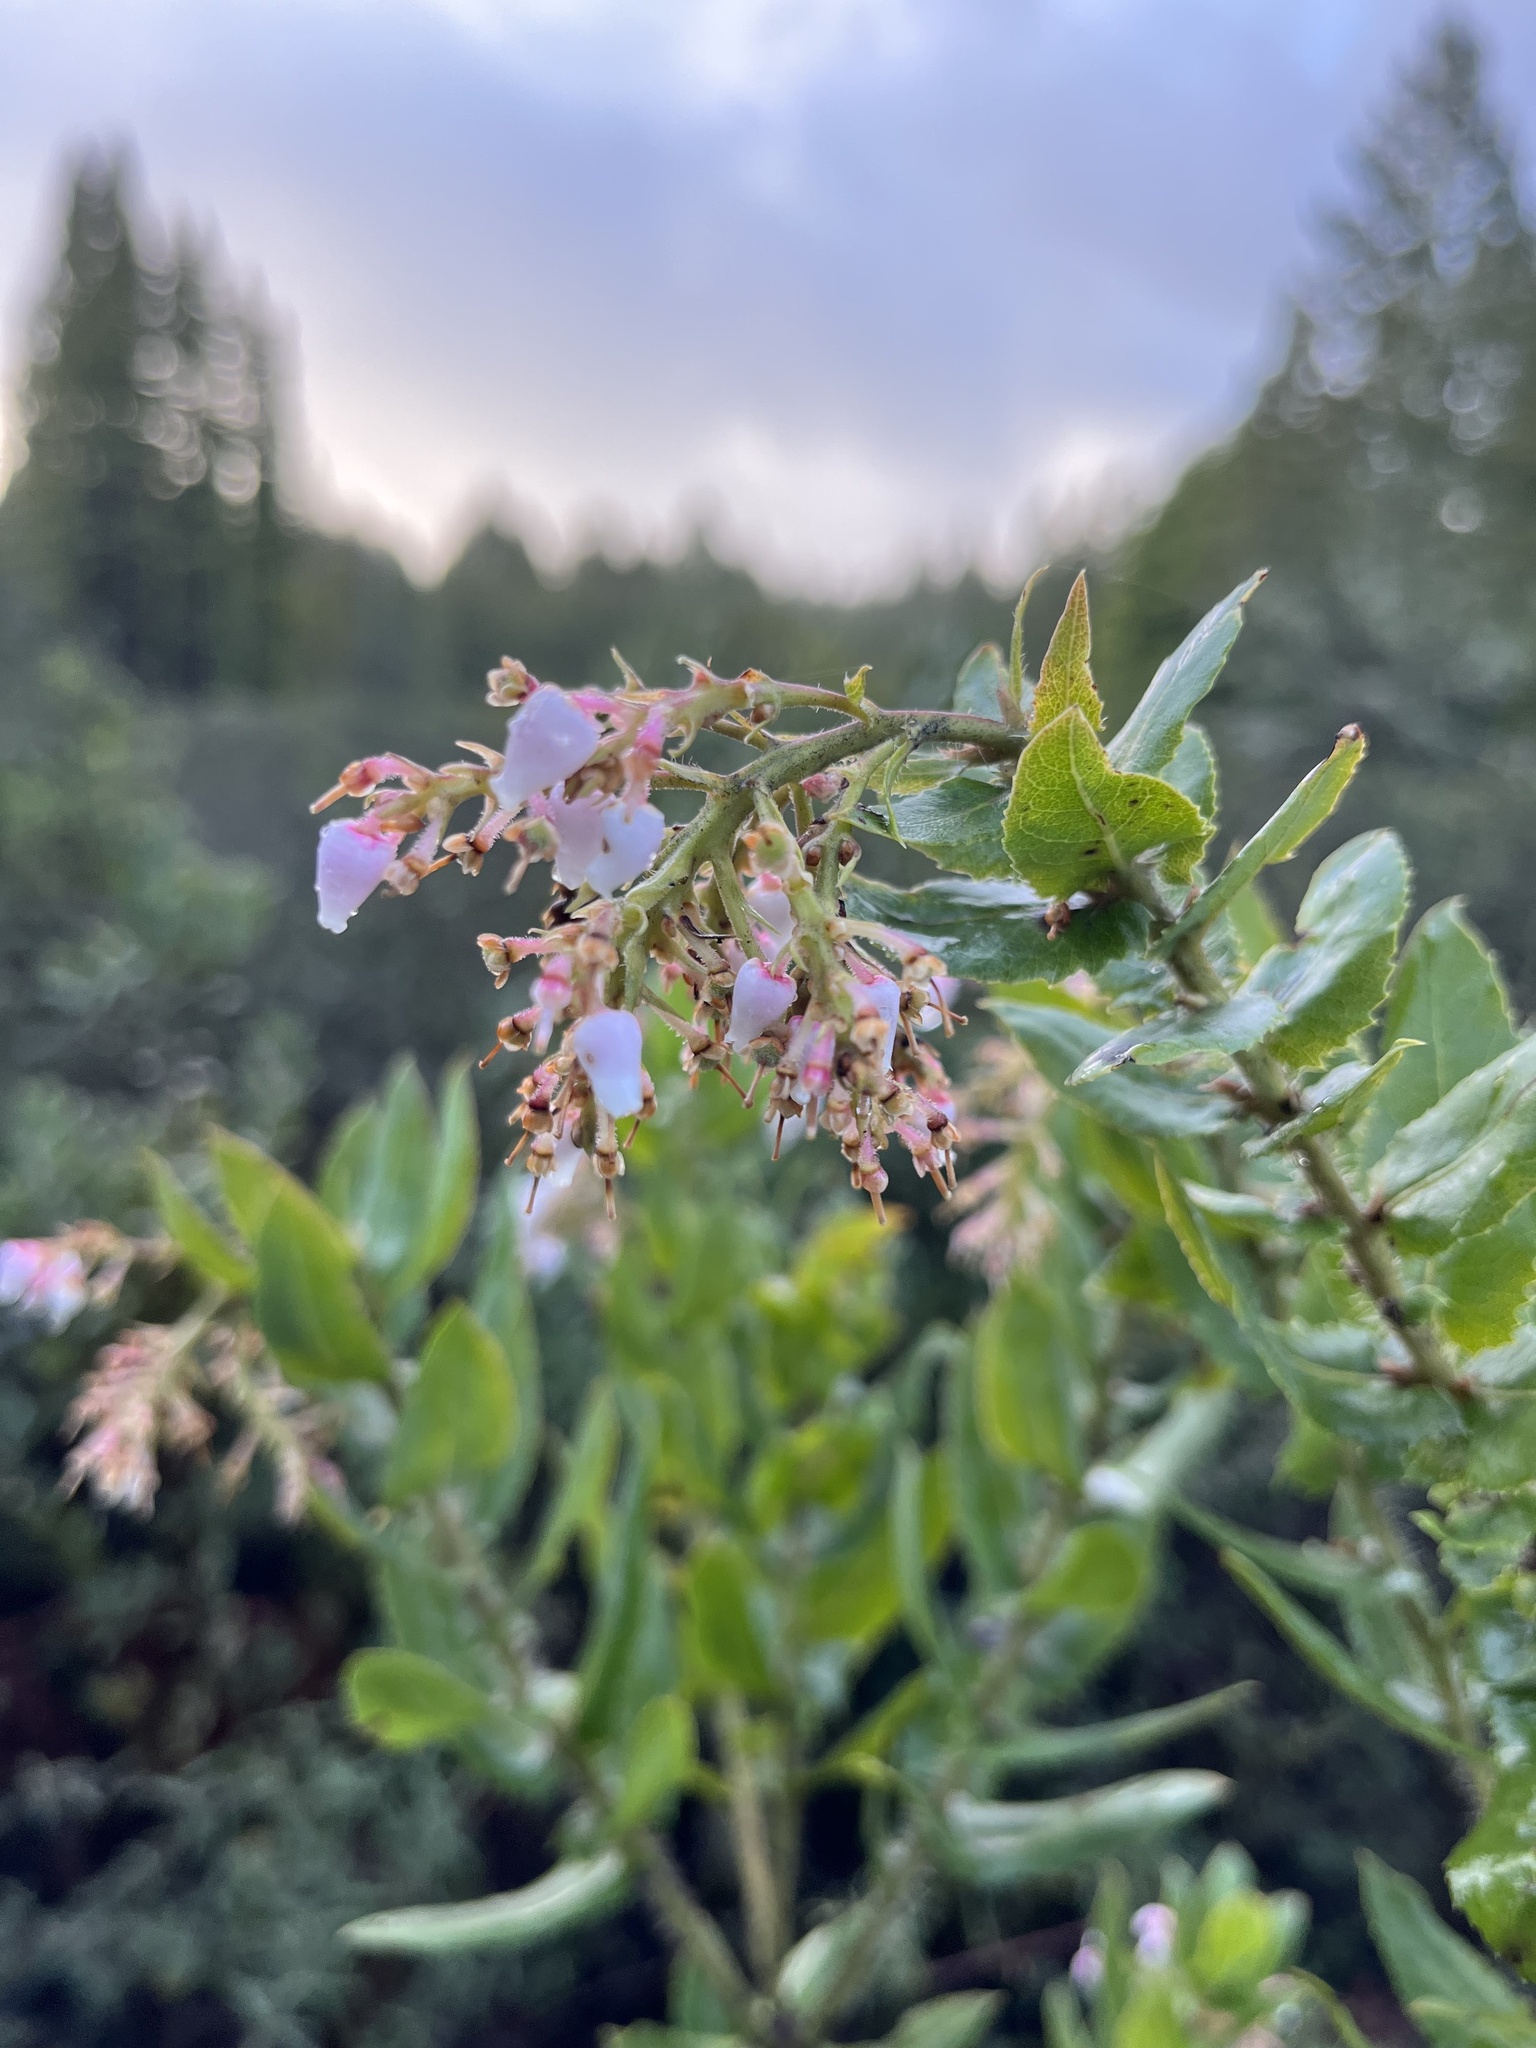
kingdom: Plantae
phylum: Tracheophyta
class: Magnoliopsida
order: Ericales
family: Ericaceae
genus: Arctostaphylos
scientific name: Arctostaphylos andersonii
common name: Santa cruz manzanita
